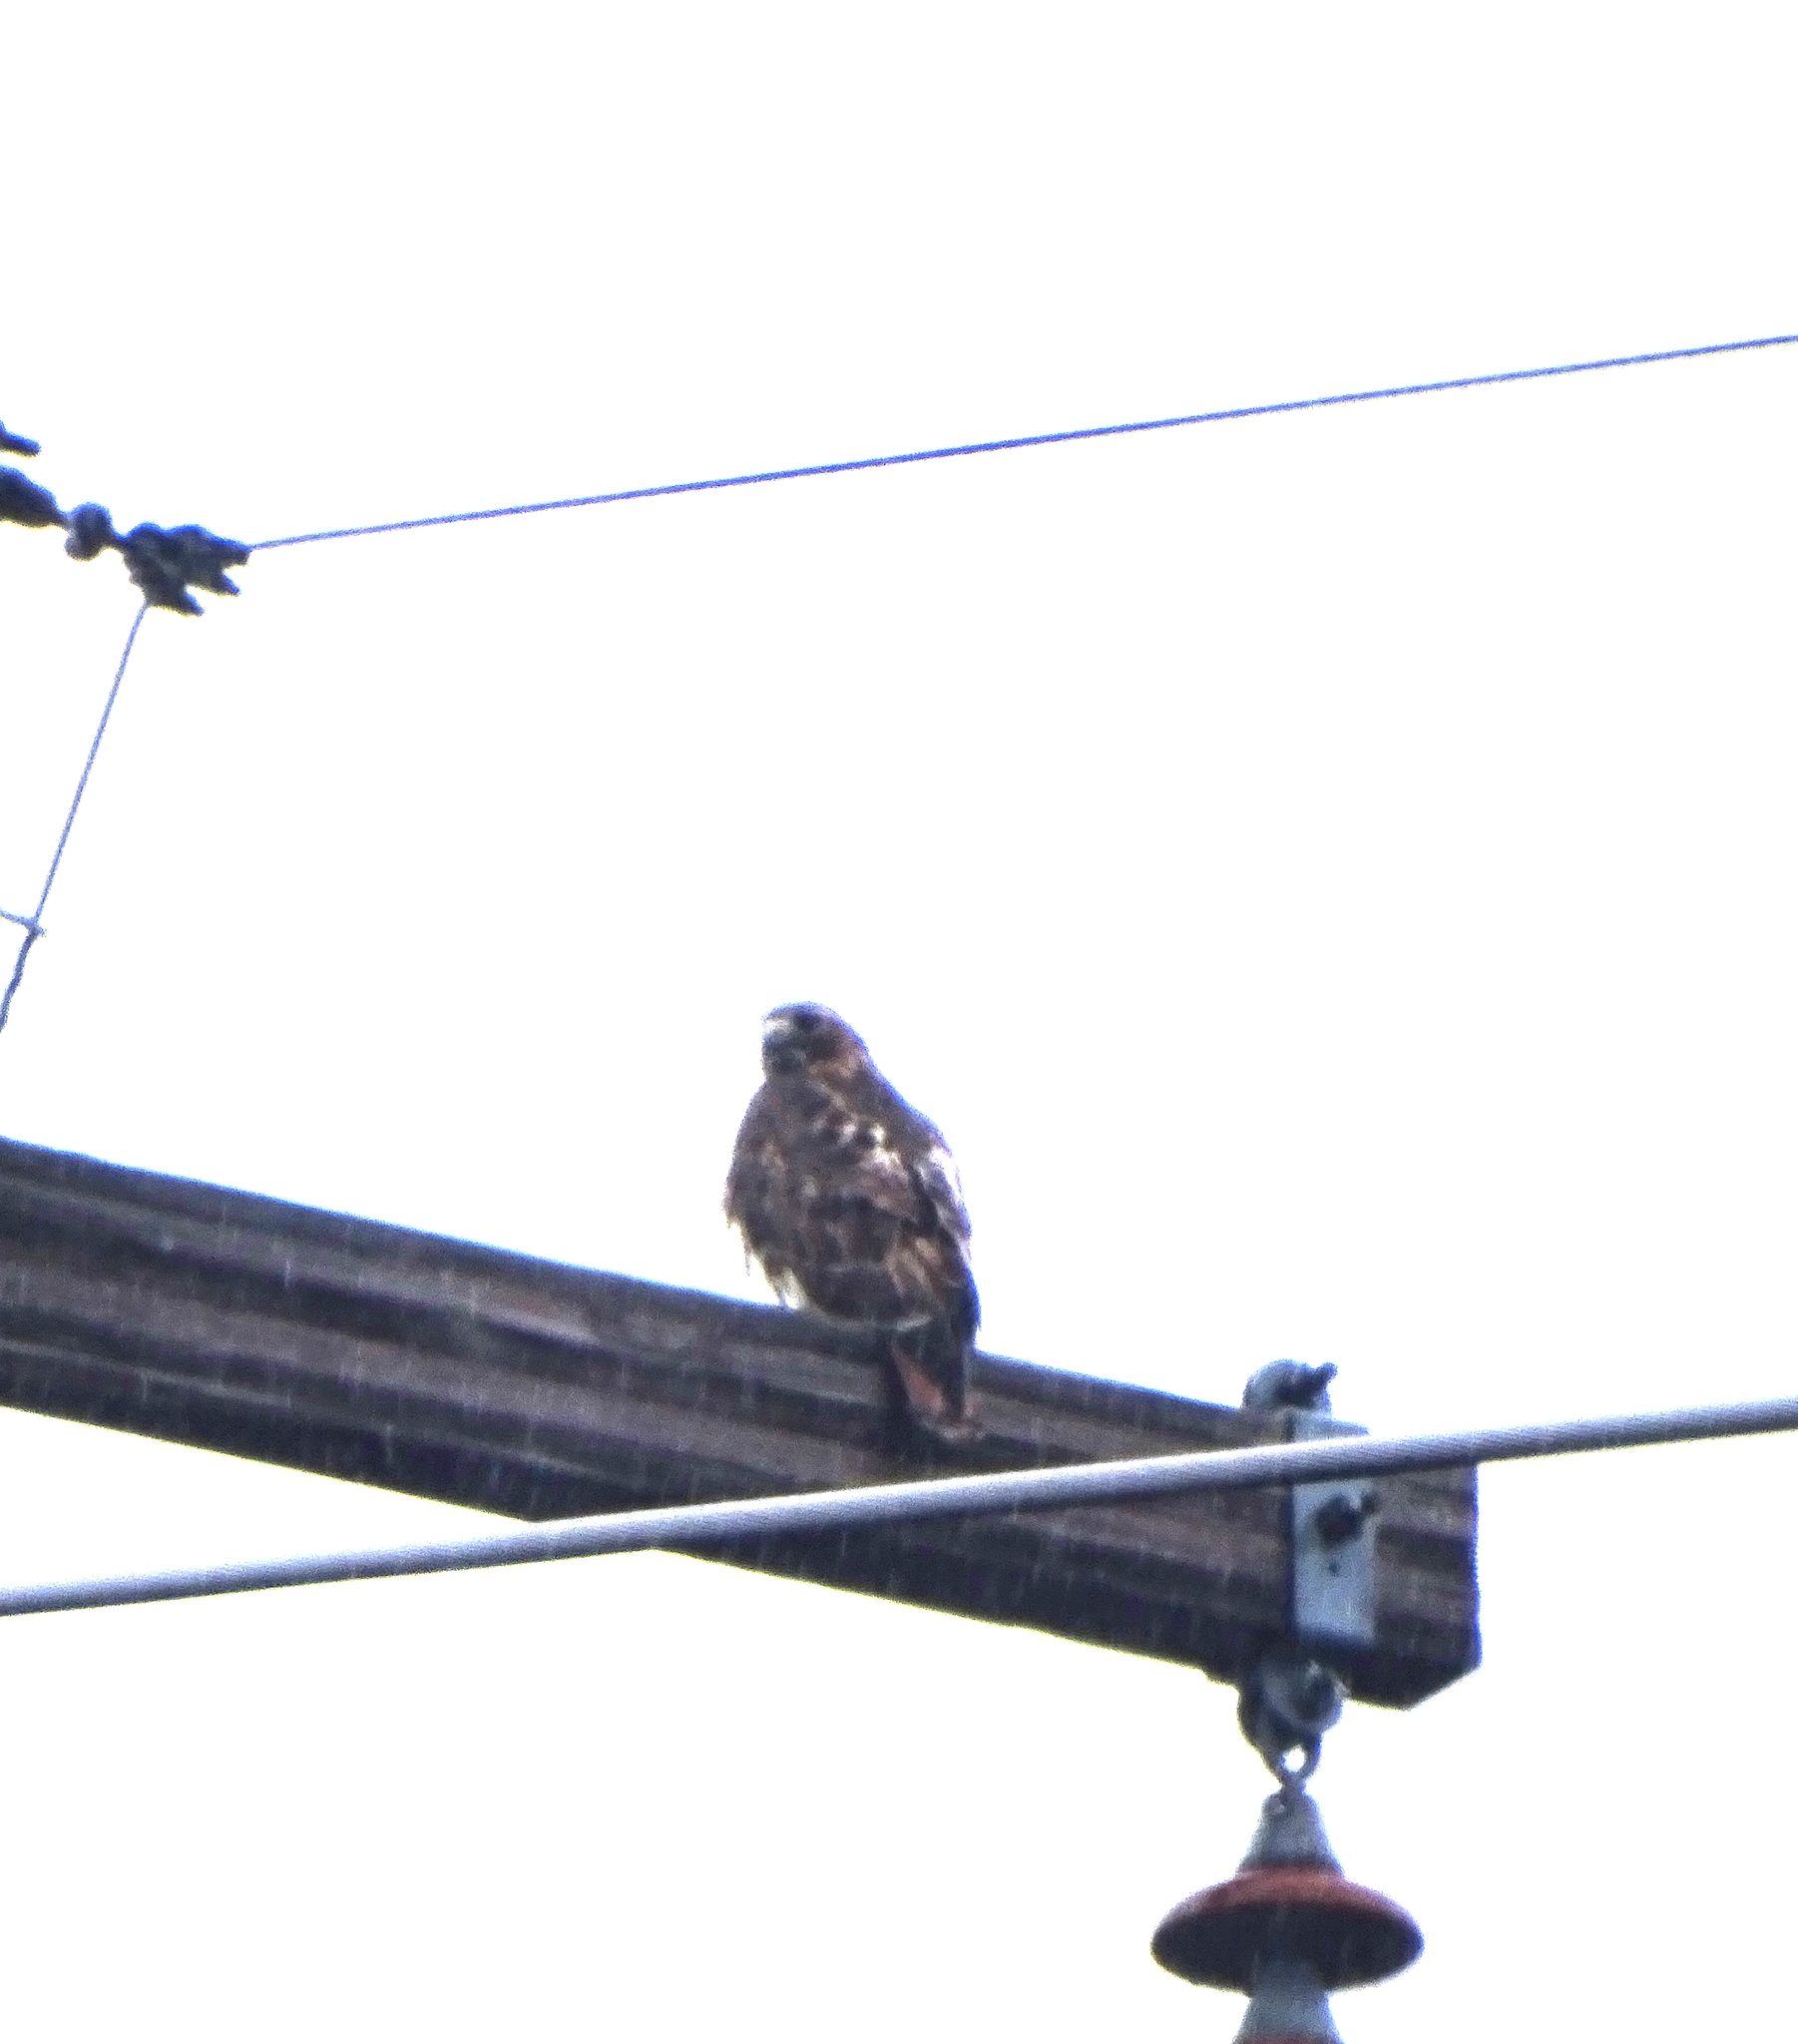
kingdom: Animalia
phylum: Chordata
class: Aves
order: Accipitriformes
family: Accipitridae
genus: Buteo
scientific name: Buteo jamaicensis
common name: Red-tailed hawk
